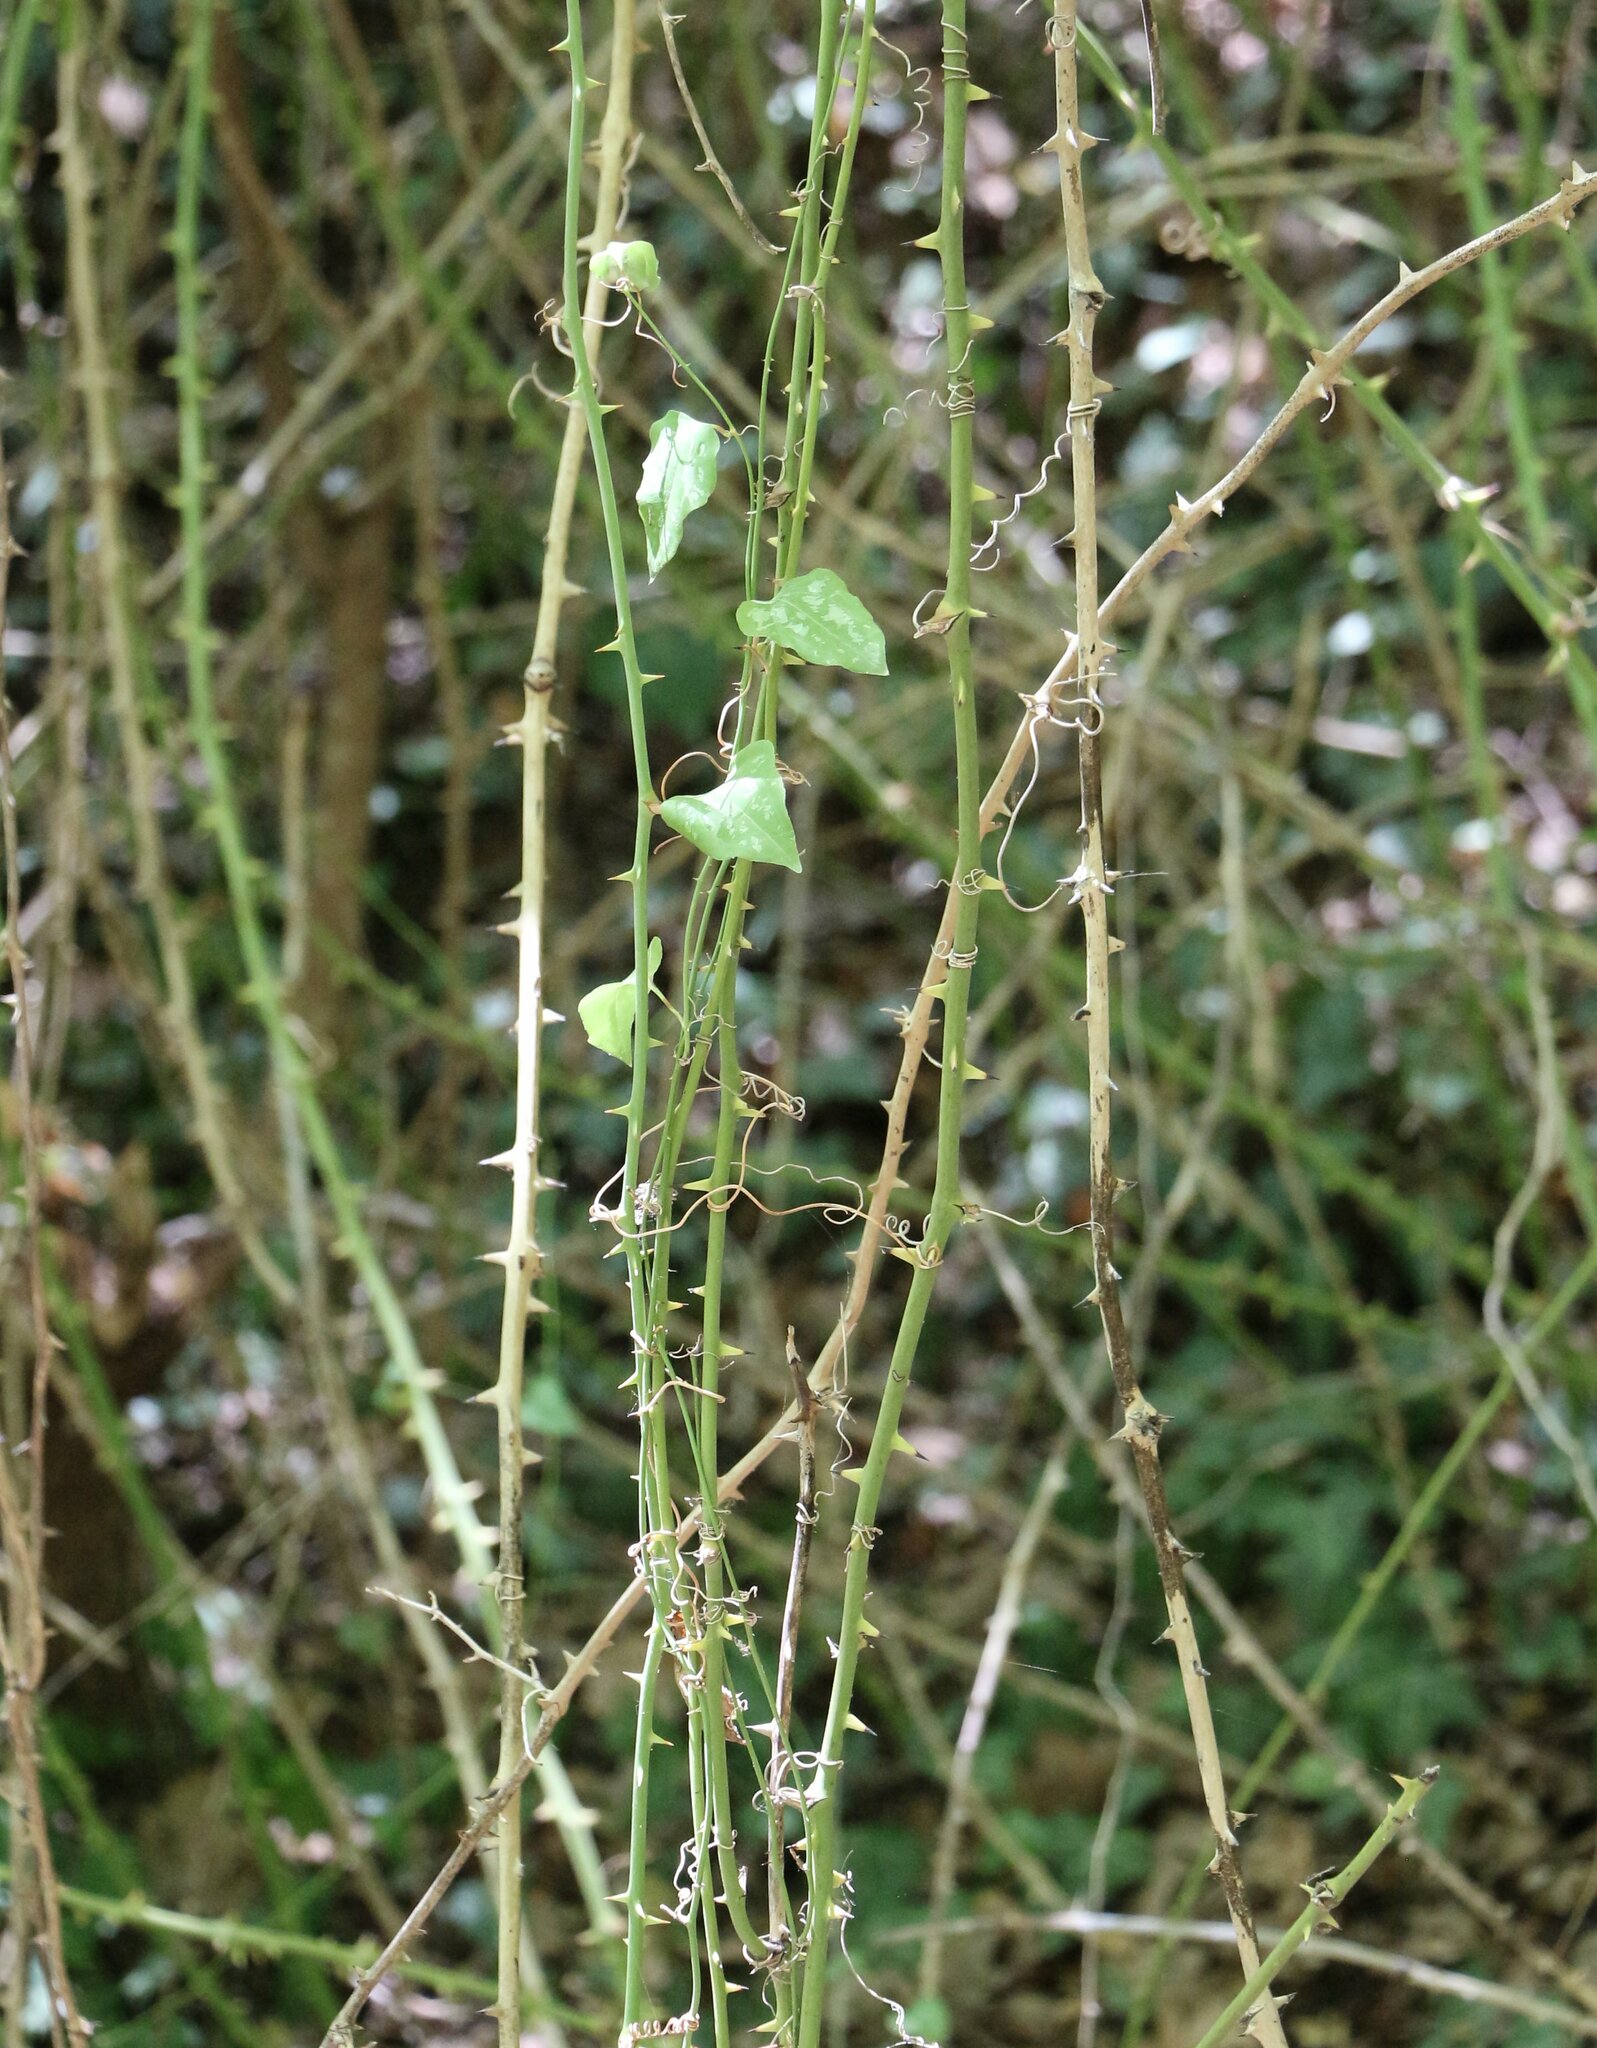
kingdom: Plantae
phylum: Tracheophyta
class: Liliopsida
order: Liliales
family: Smilacaceae
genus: Smilax
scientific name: Smilax excelsa
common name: Larger smilax
